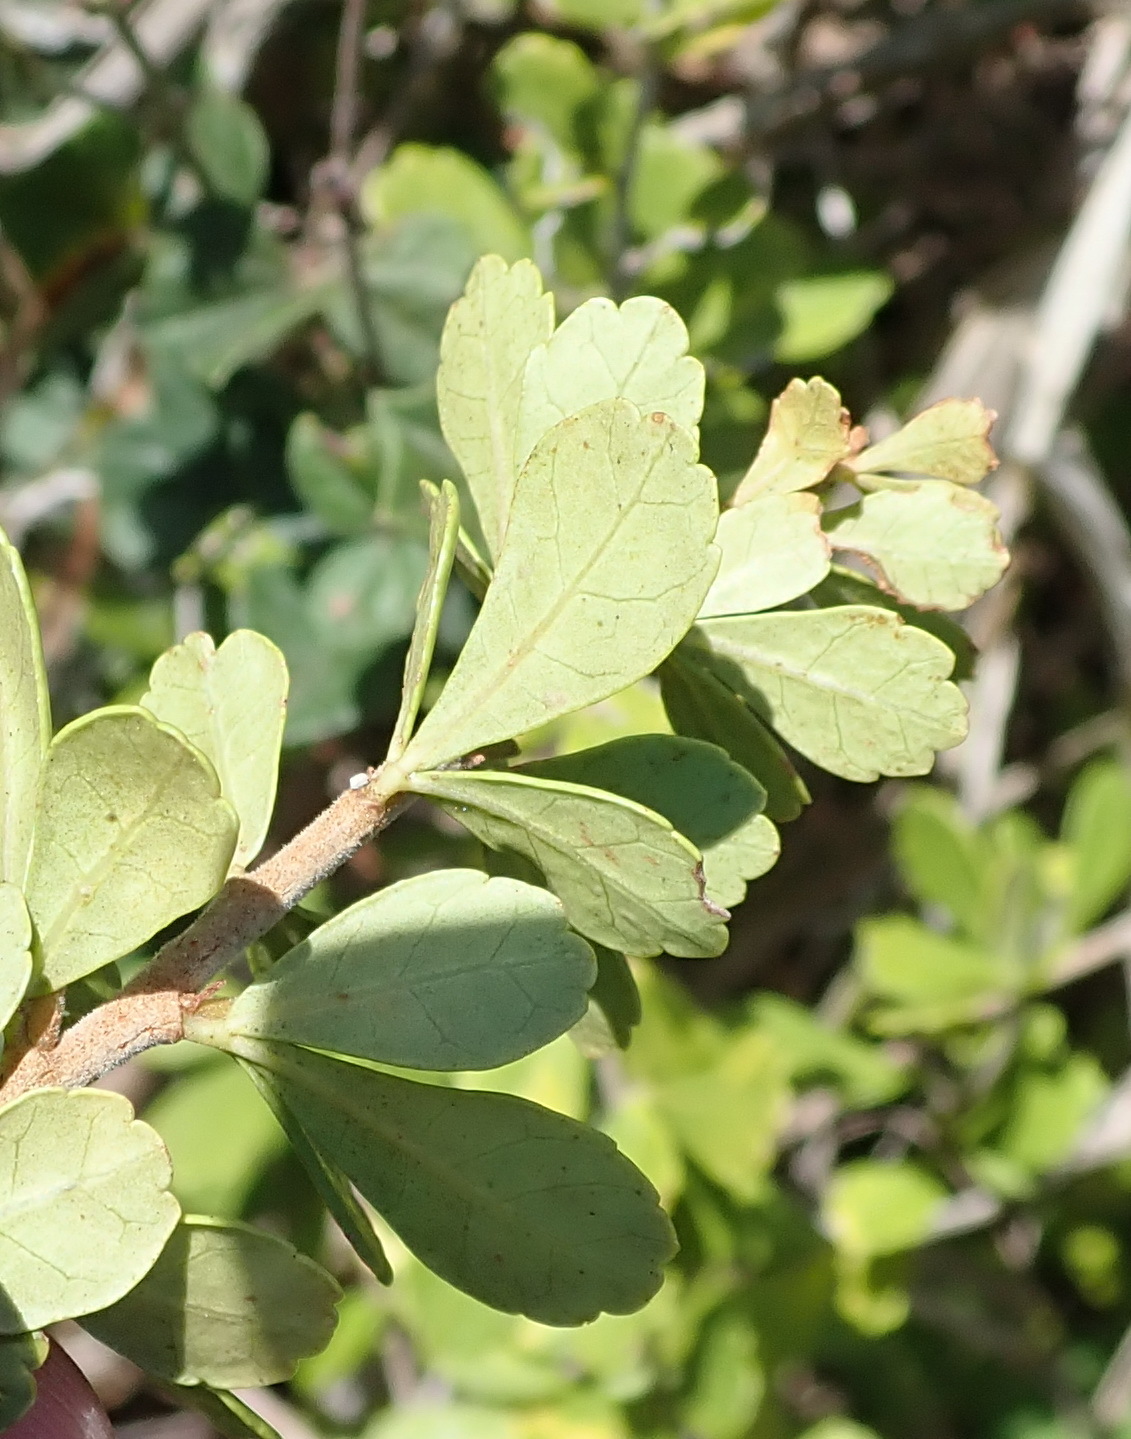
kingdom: Plantae
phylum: Tracheophyta
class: Magnoliopsida
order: Sapindales
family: Anacardiaceae
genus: Searsia
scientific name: Searsia crenata
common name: Crowberry
